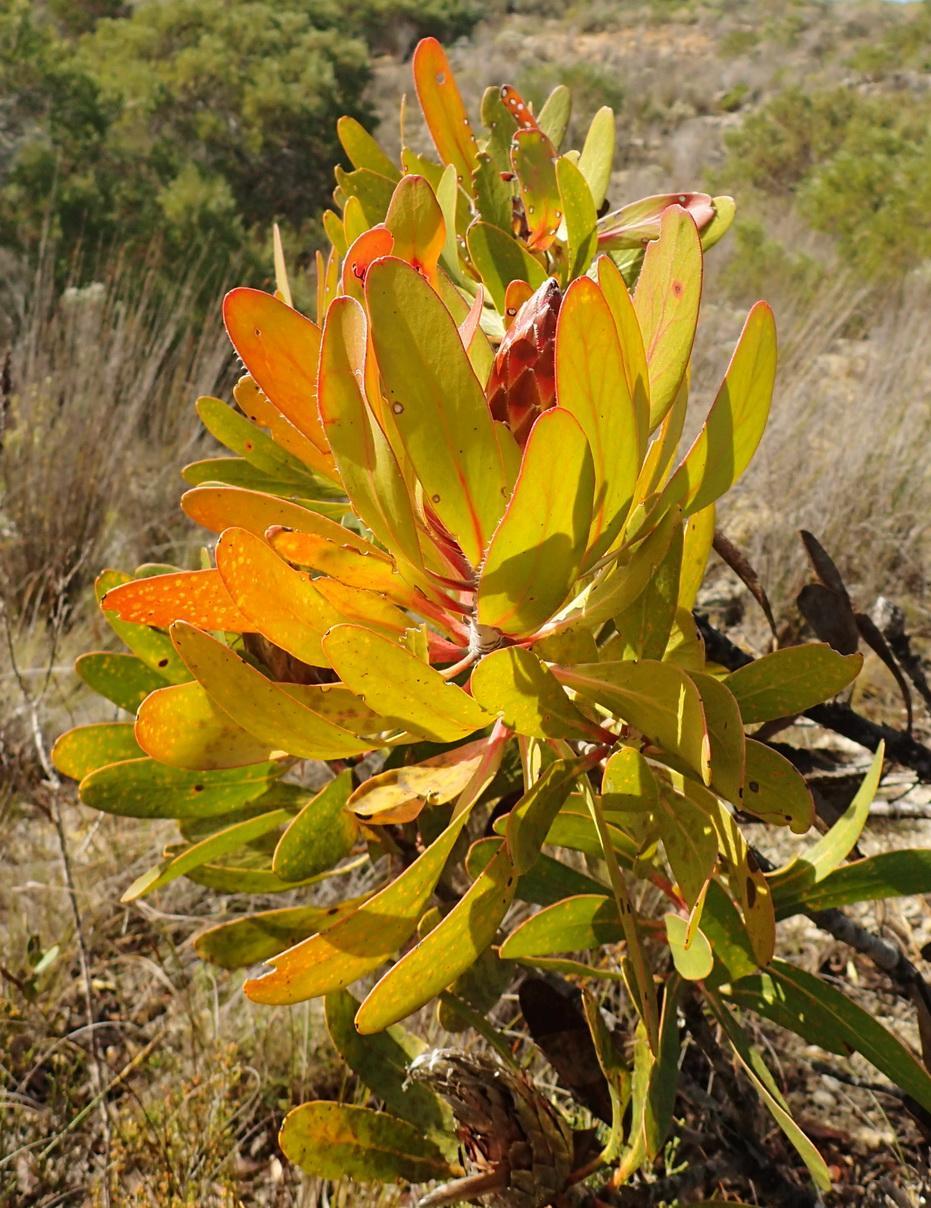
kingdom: Plantae
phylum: Tracheophyta
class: Magnoliopsida
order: Proteales
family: Proteaceae
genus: Protea
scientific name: Protea obtusifolia
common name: Bredasdorp sugarbush
